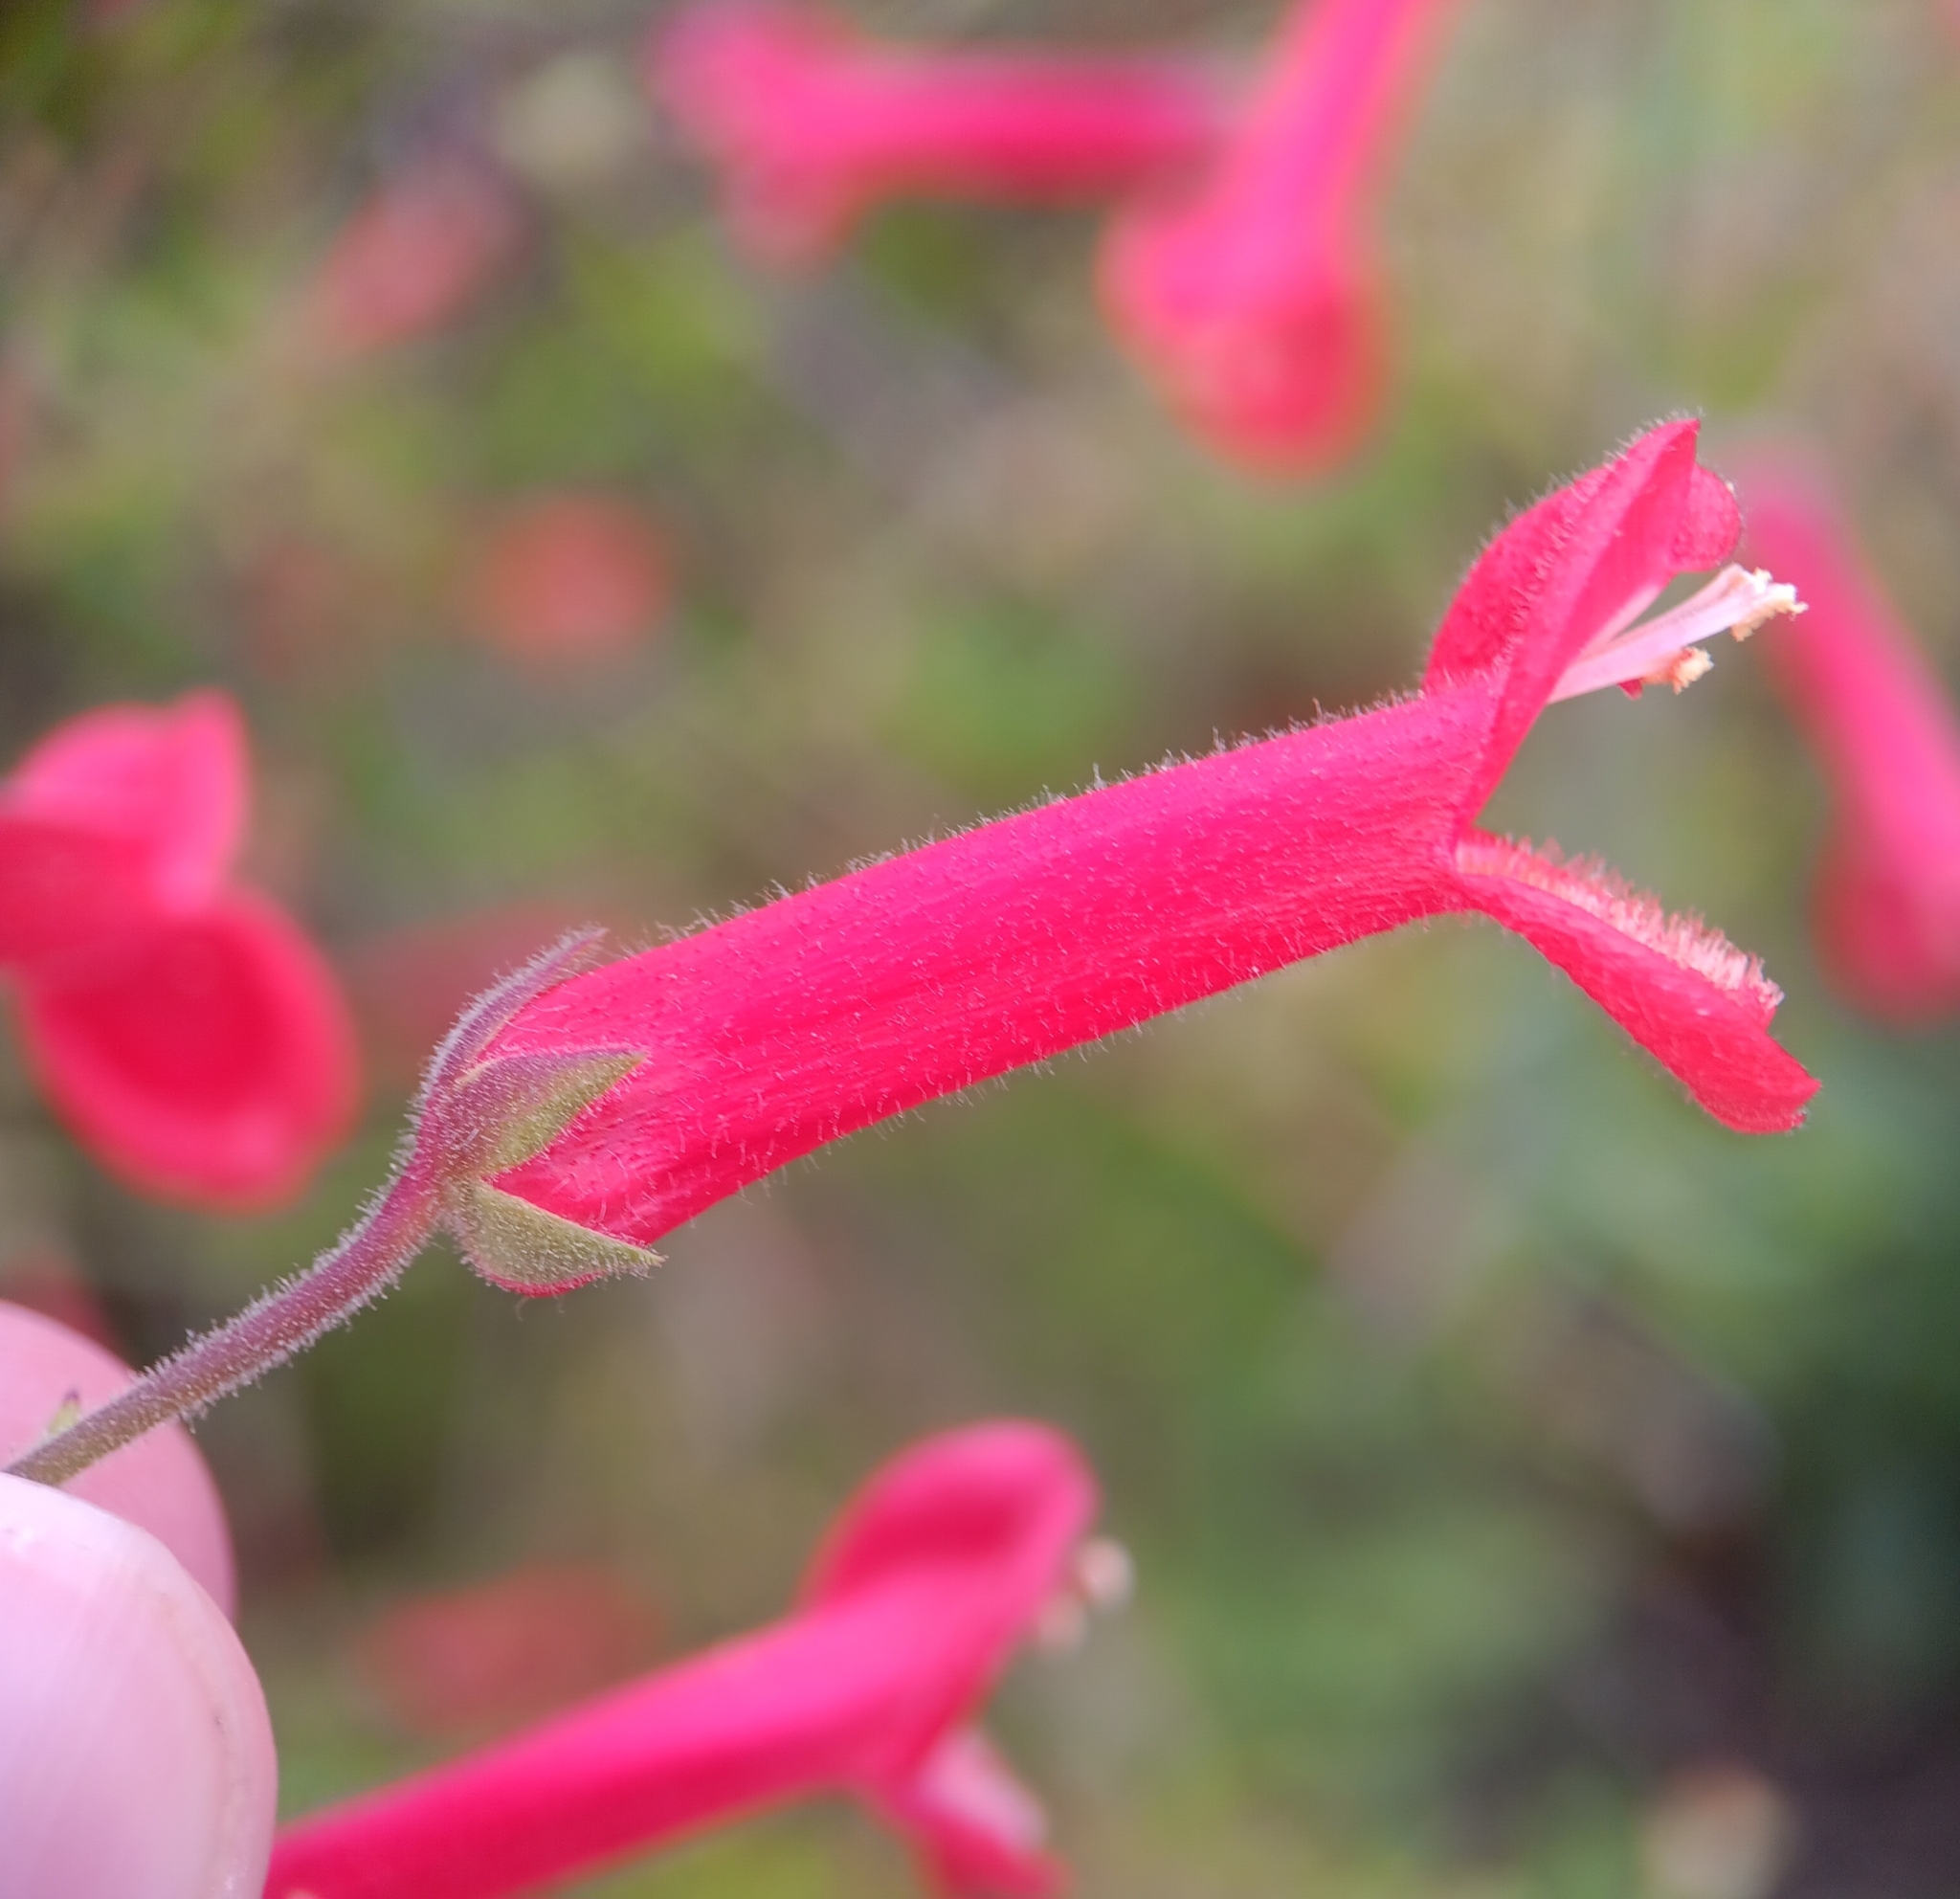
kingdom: Plantae
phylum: Tracheophyta
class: Magnoliopsida
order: Lamiales
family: Plantaginaceae
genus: Gambelia
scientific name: Gambelia juncea
